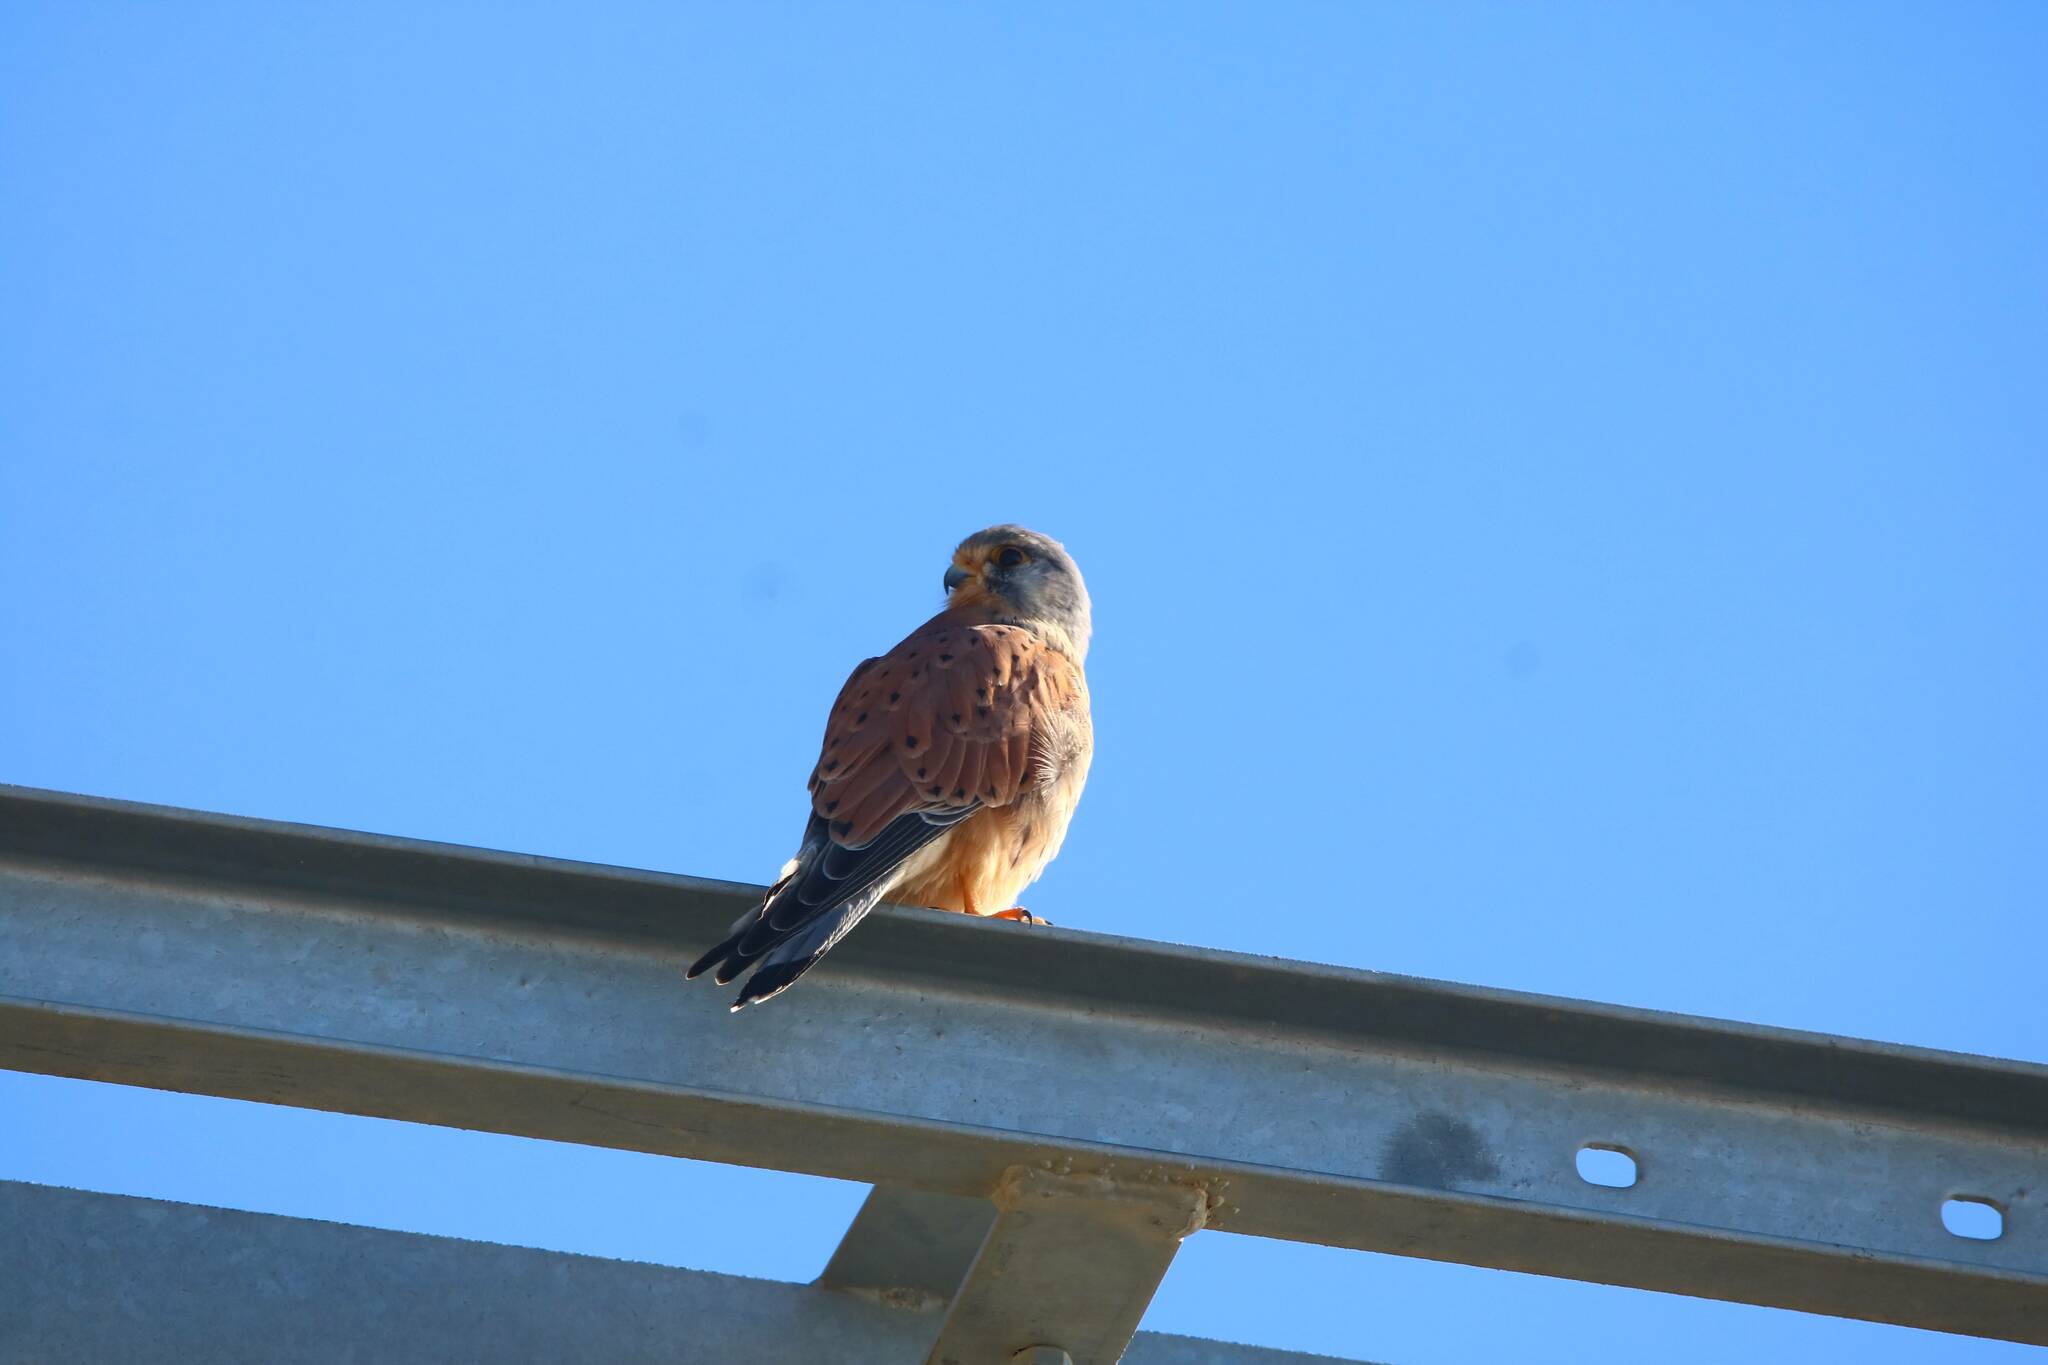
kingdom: Animalia
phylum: Chordata
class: Aves
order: Falconiformes
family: Falconidae
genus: Falco
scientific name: Falco tinnunculus
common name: Common kestrel
